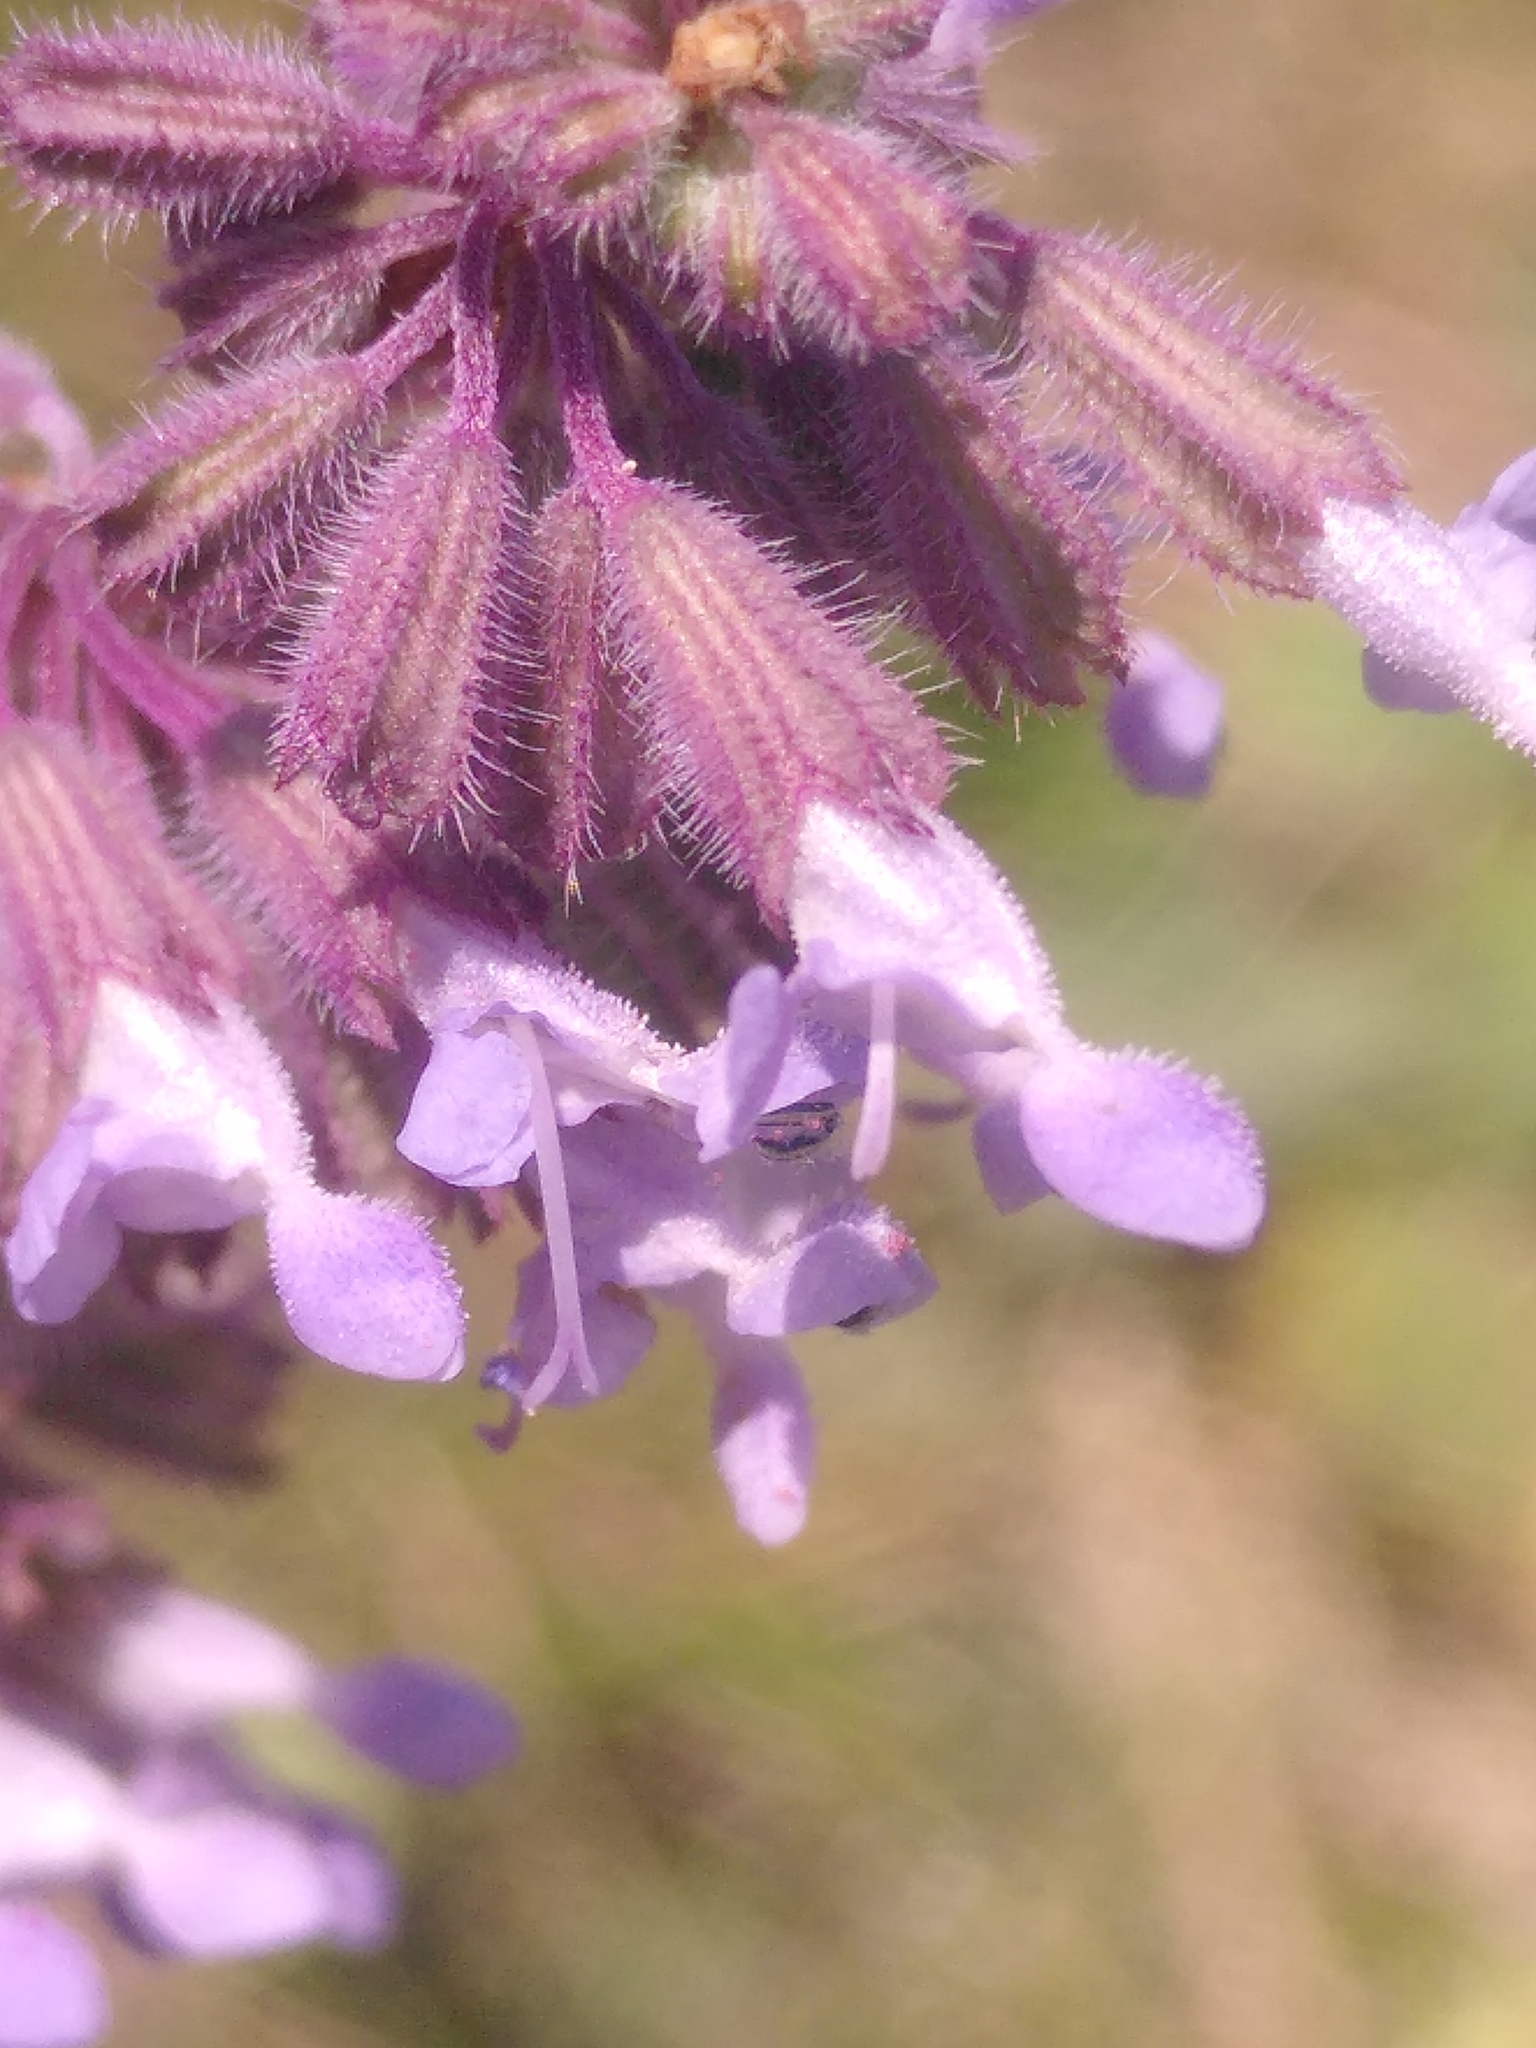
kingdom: Plantae
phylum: Tracheophyta
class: Magnoliopsida
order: Lamiales
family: Lamiaceae
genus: Salvia
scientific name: Salvia verticillata
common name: Whorled clary
